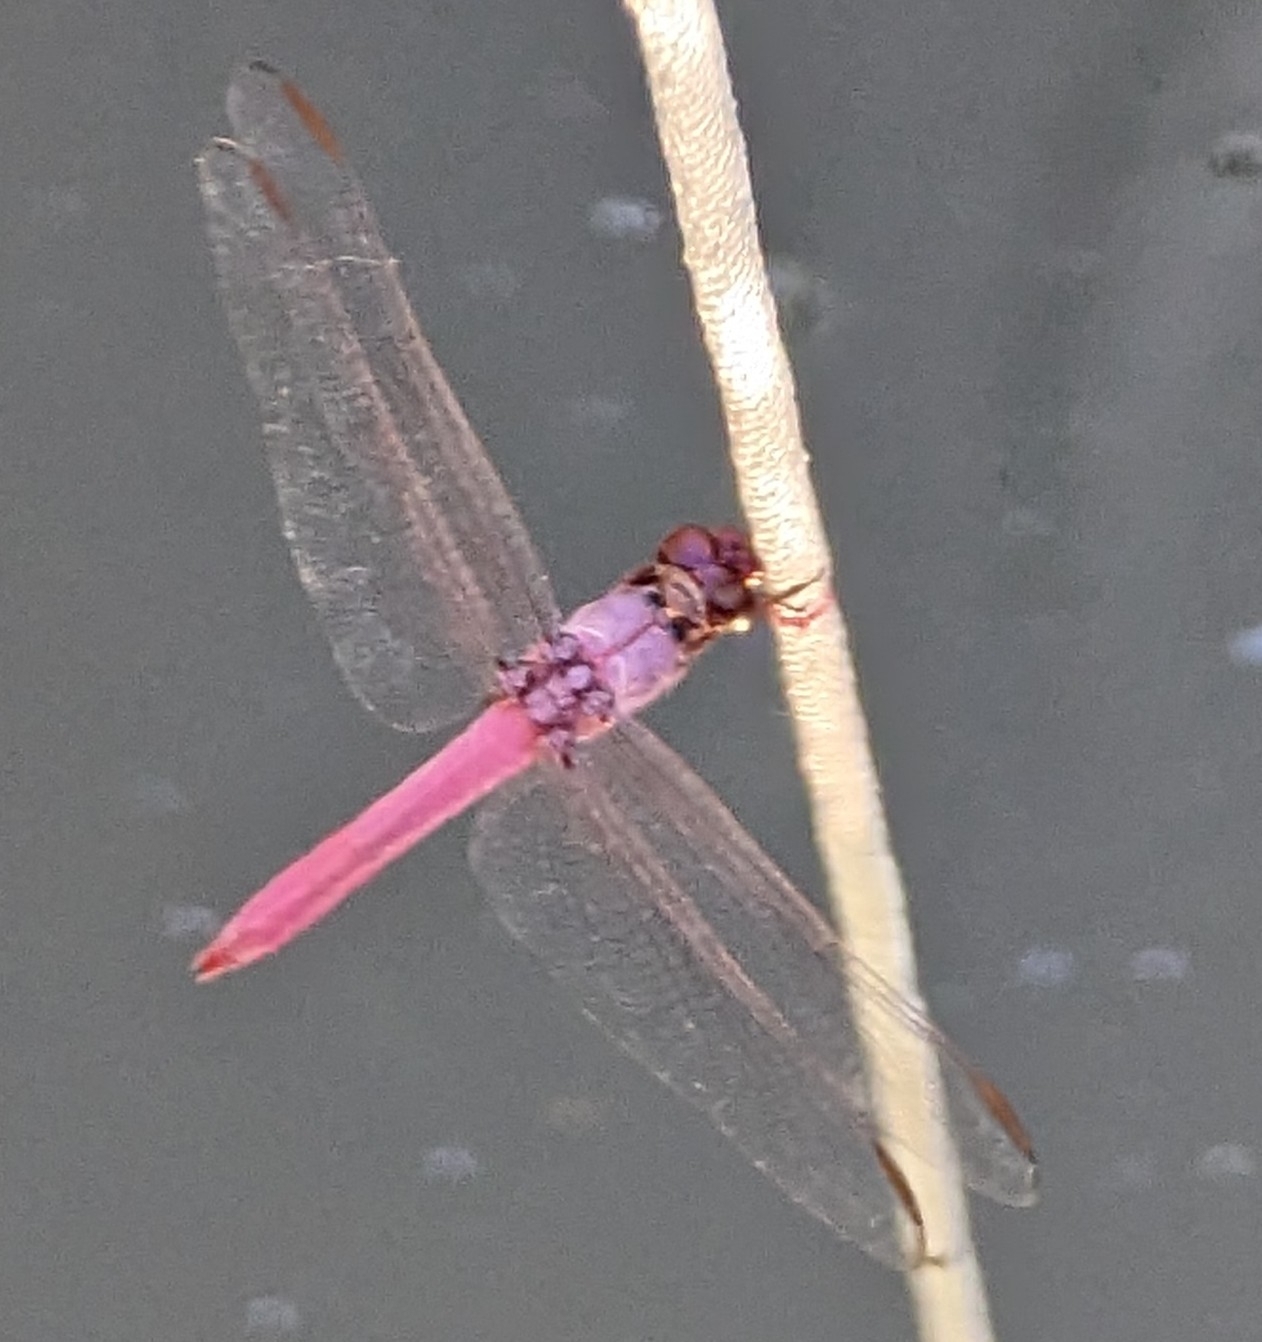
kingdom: Animalia
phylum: Arthropoda
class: Insecta
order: Odonata
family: Libellulidae
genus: Orthemis
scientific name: Orthemis ferruginea
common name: Roseate skimmer
